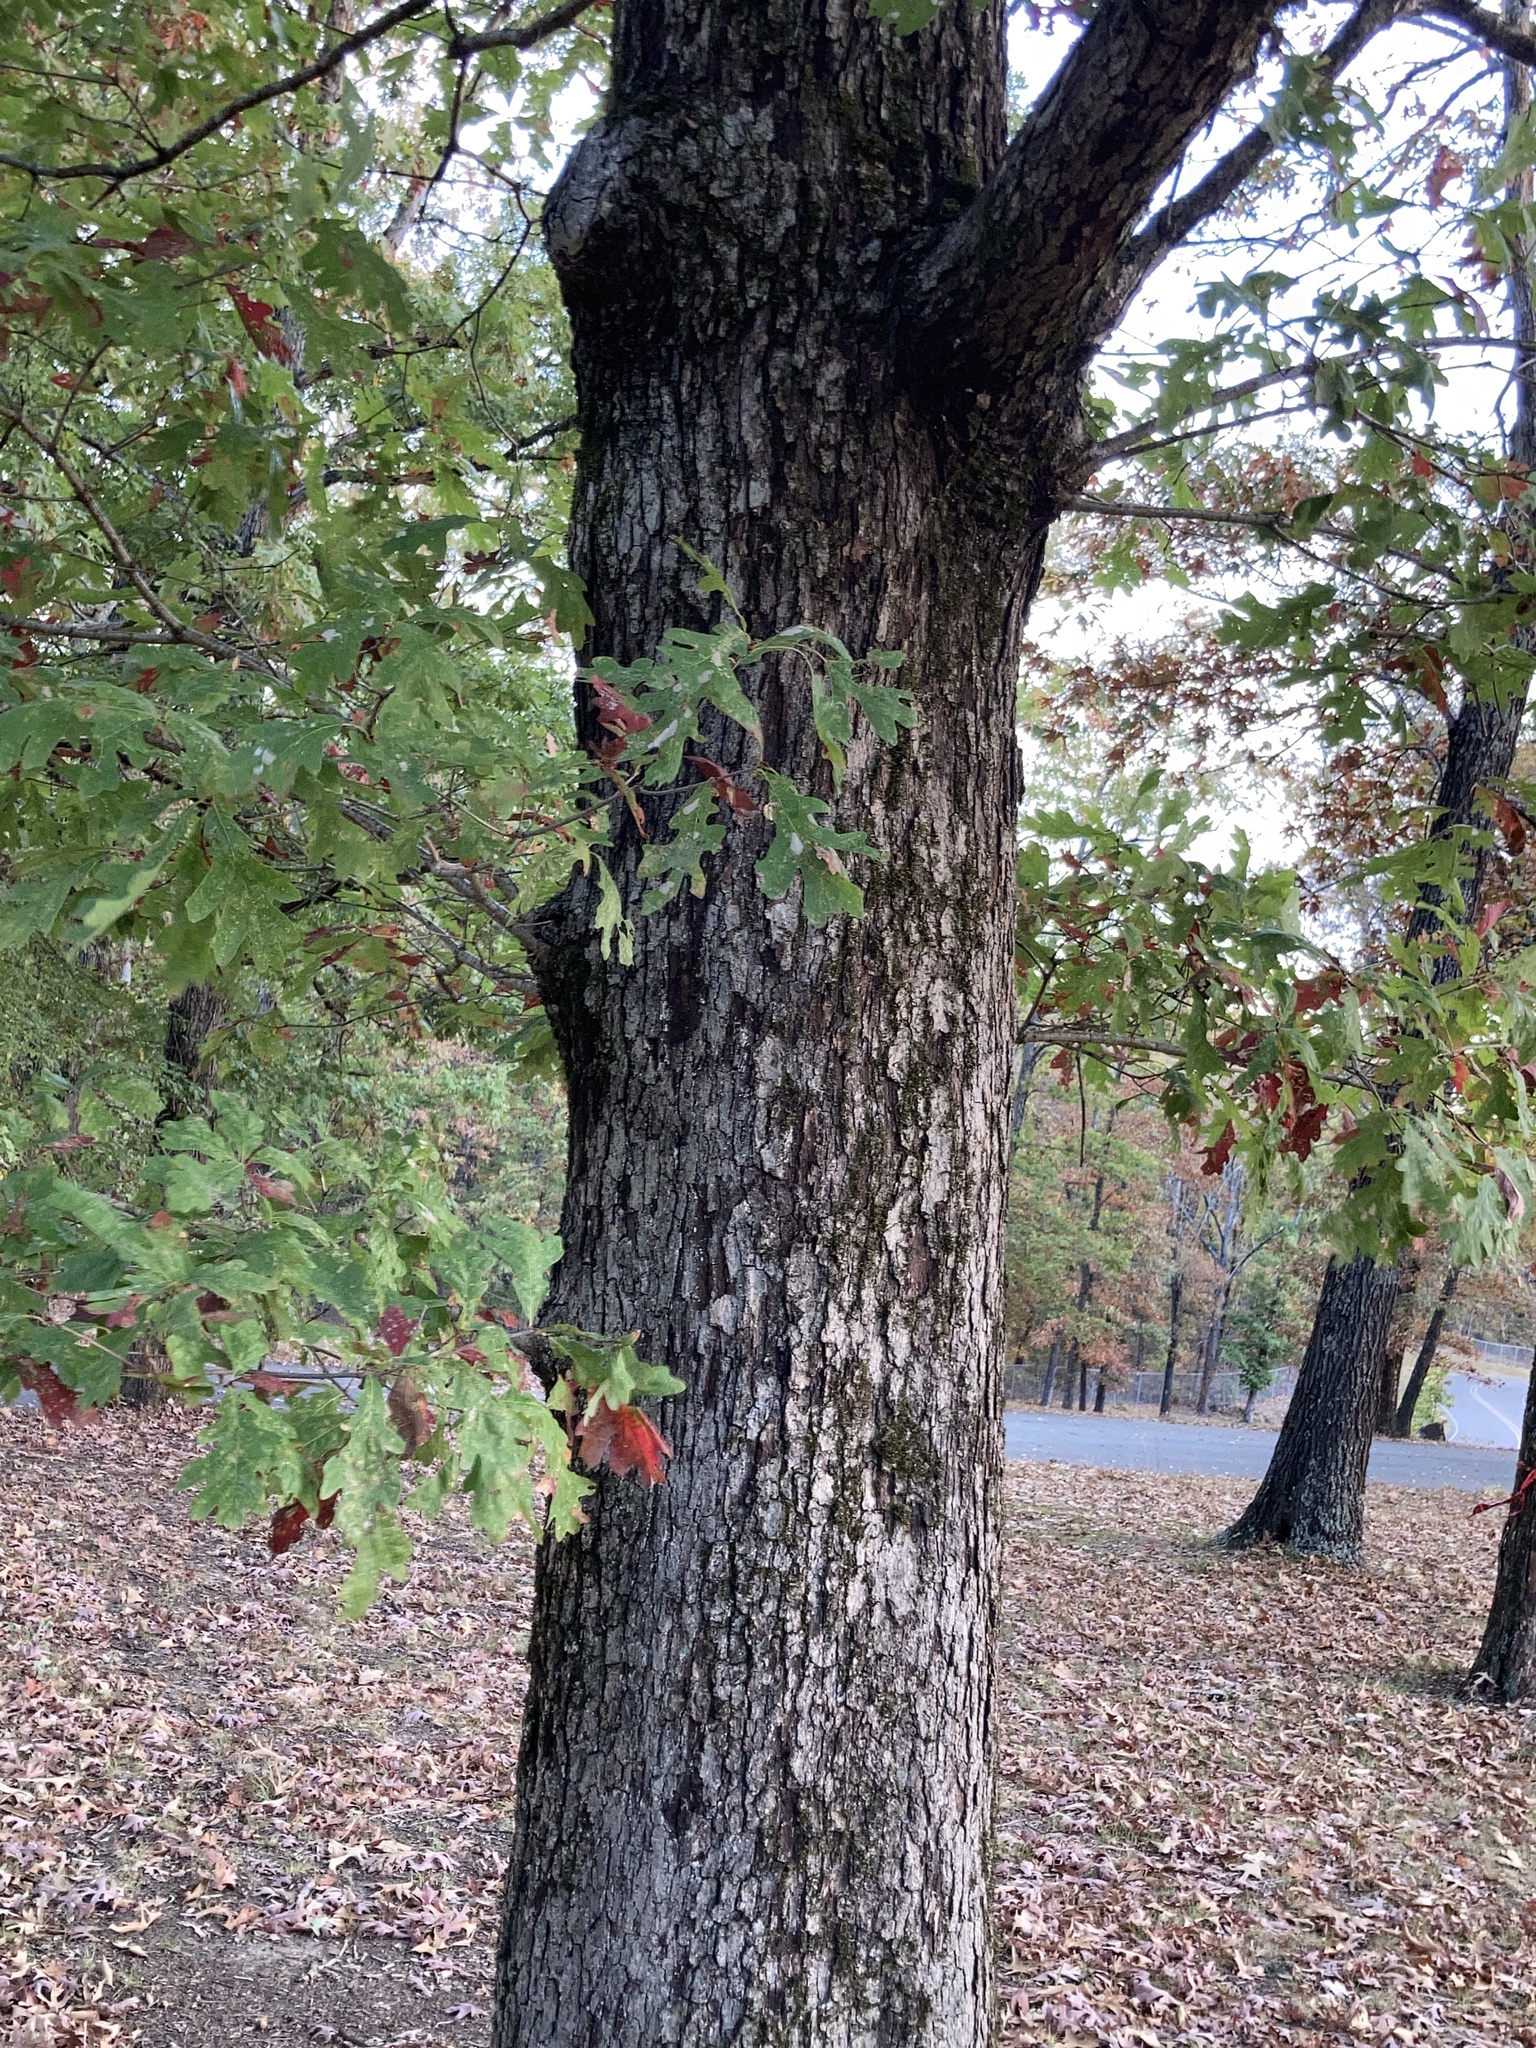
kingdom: Plantae
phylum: Tracheophyta
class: Magnoliopsida
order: Fagales
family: Fagaceae
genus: Quercus
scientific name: Quercus alba
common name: White oak
